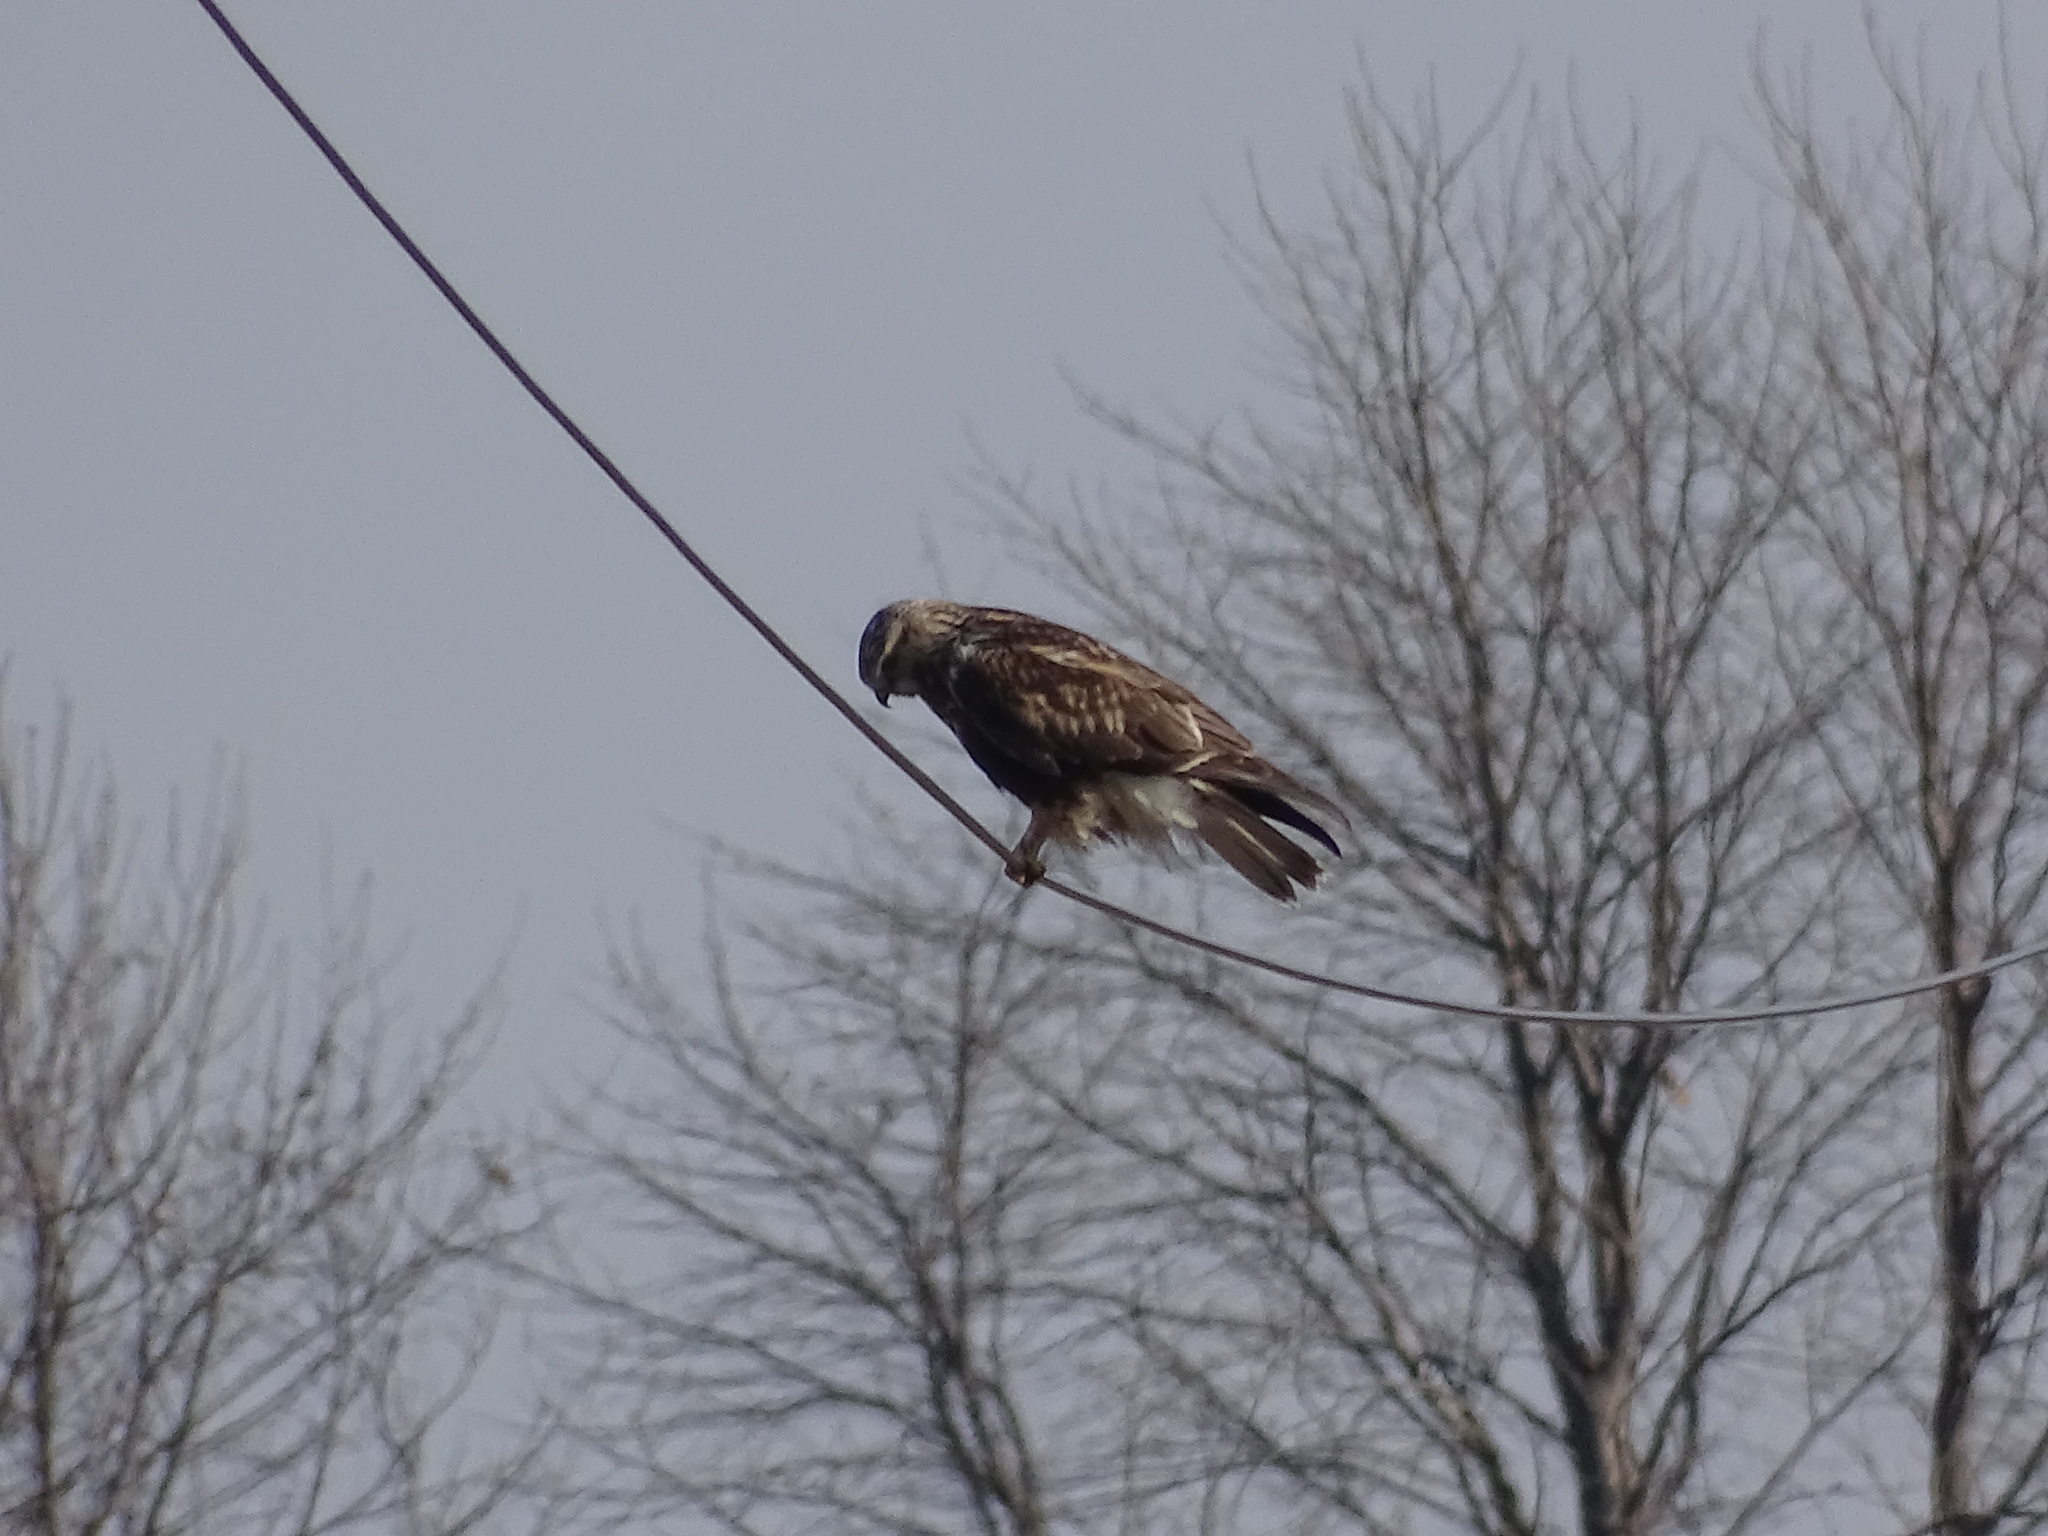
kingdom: Animalia
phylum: Chordata
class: Aves
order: Accipitriformes
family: Accipitridae
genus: Buteo
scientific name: Buteo lagopus
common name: Rough-legged buzzard
